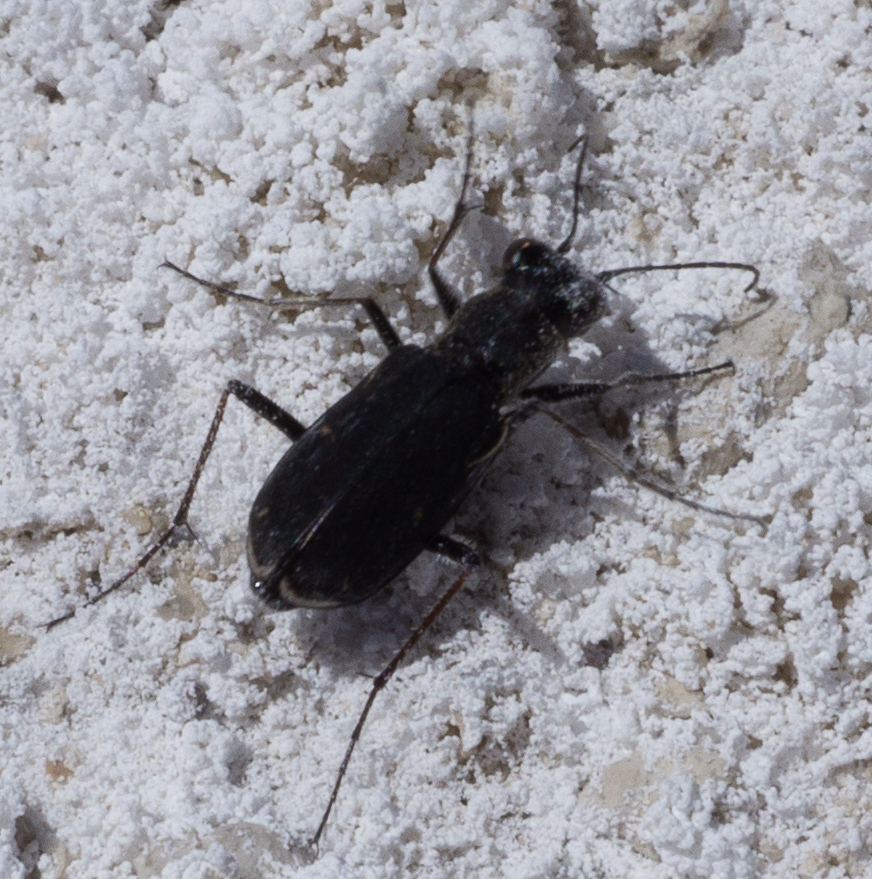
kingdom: Animalia
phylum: Arthropoda
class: Insecta
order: Coleoptera
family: Carabidae
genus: Cylindera
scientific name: Cylindera terricola
